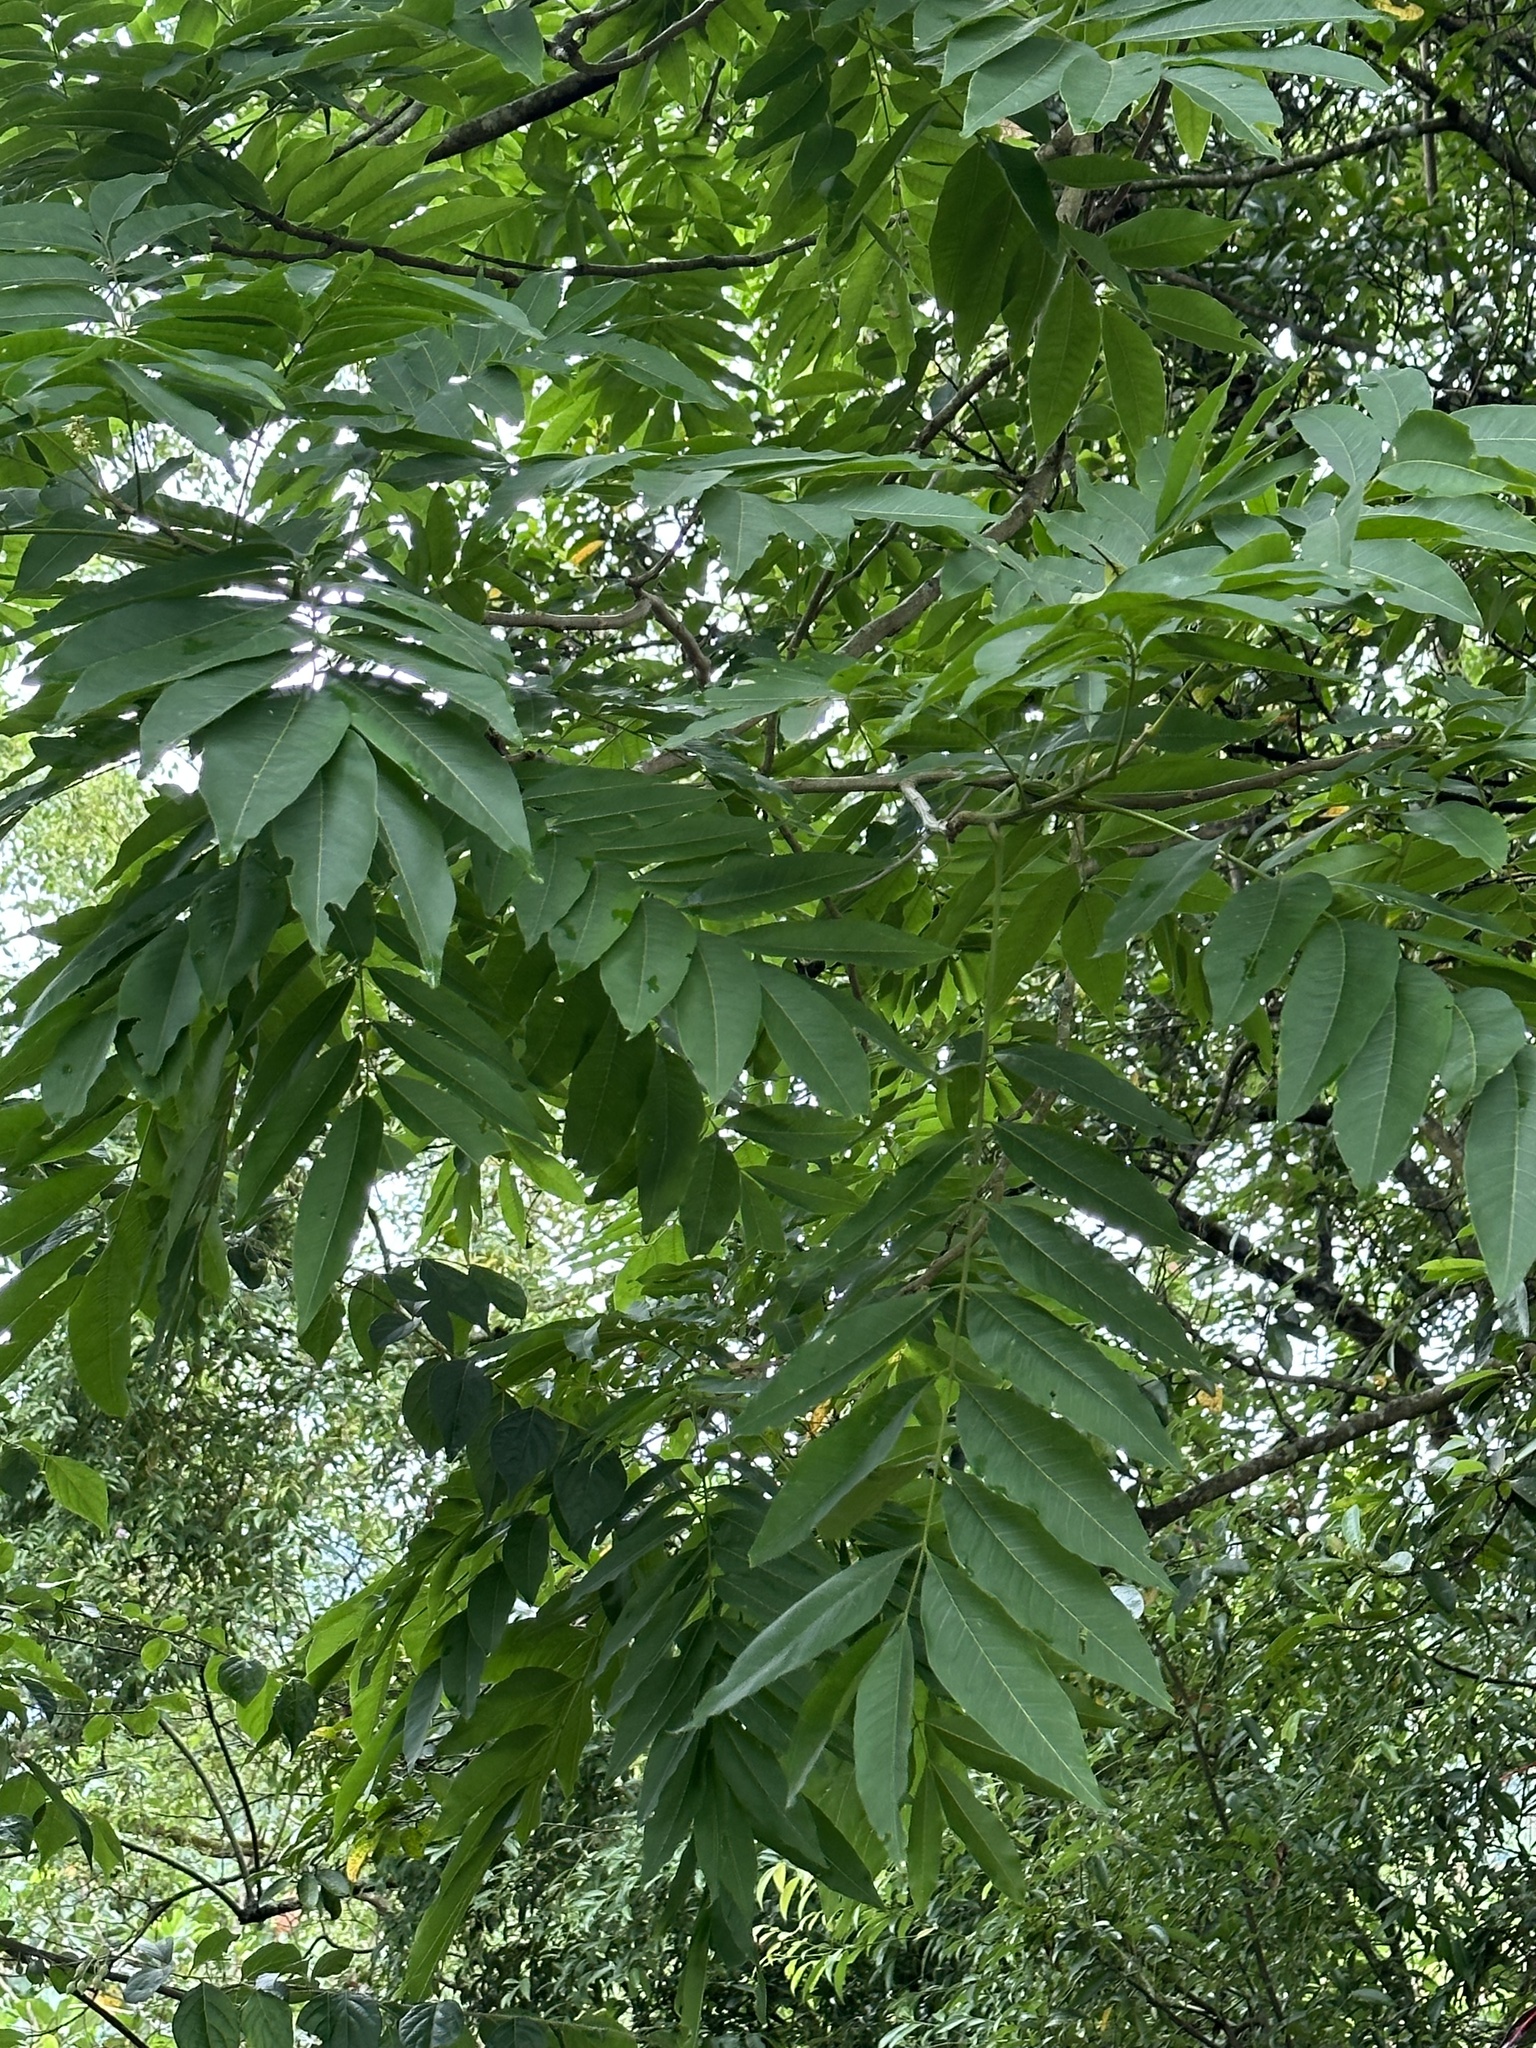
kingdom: Plantae
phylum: Tracheophyta
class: Magnoliopsida
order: Sapindales
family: Sapindaceae
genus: Sapindus
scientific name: Sapindus mukorossi
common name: Chinese soapberry
